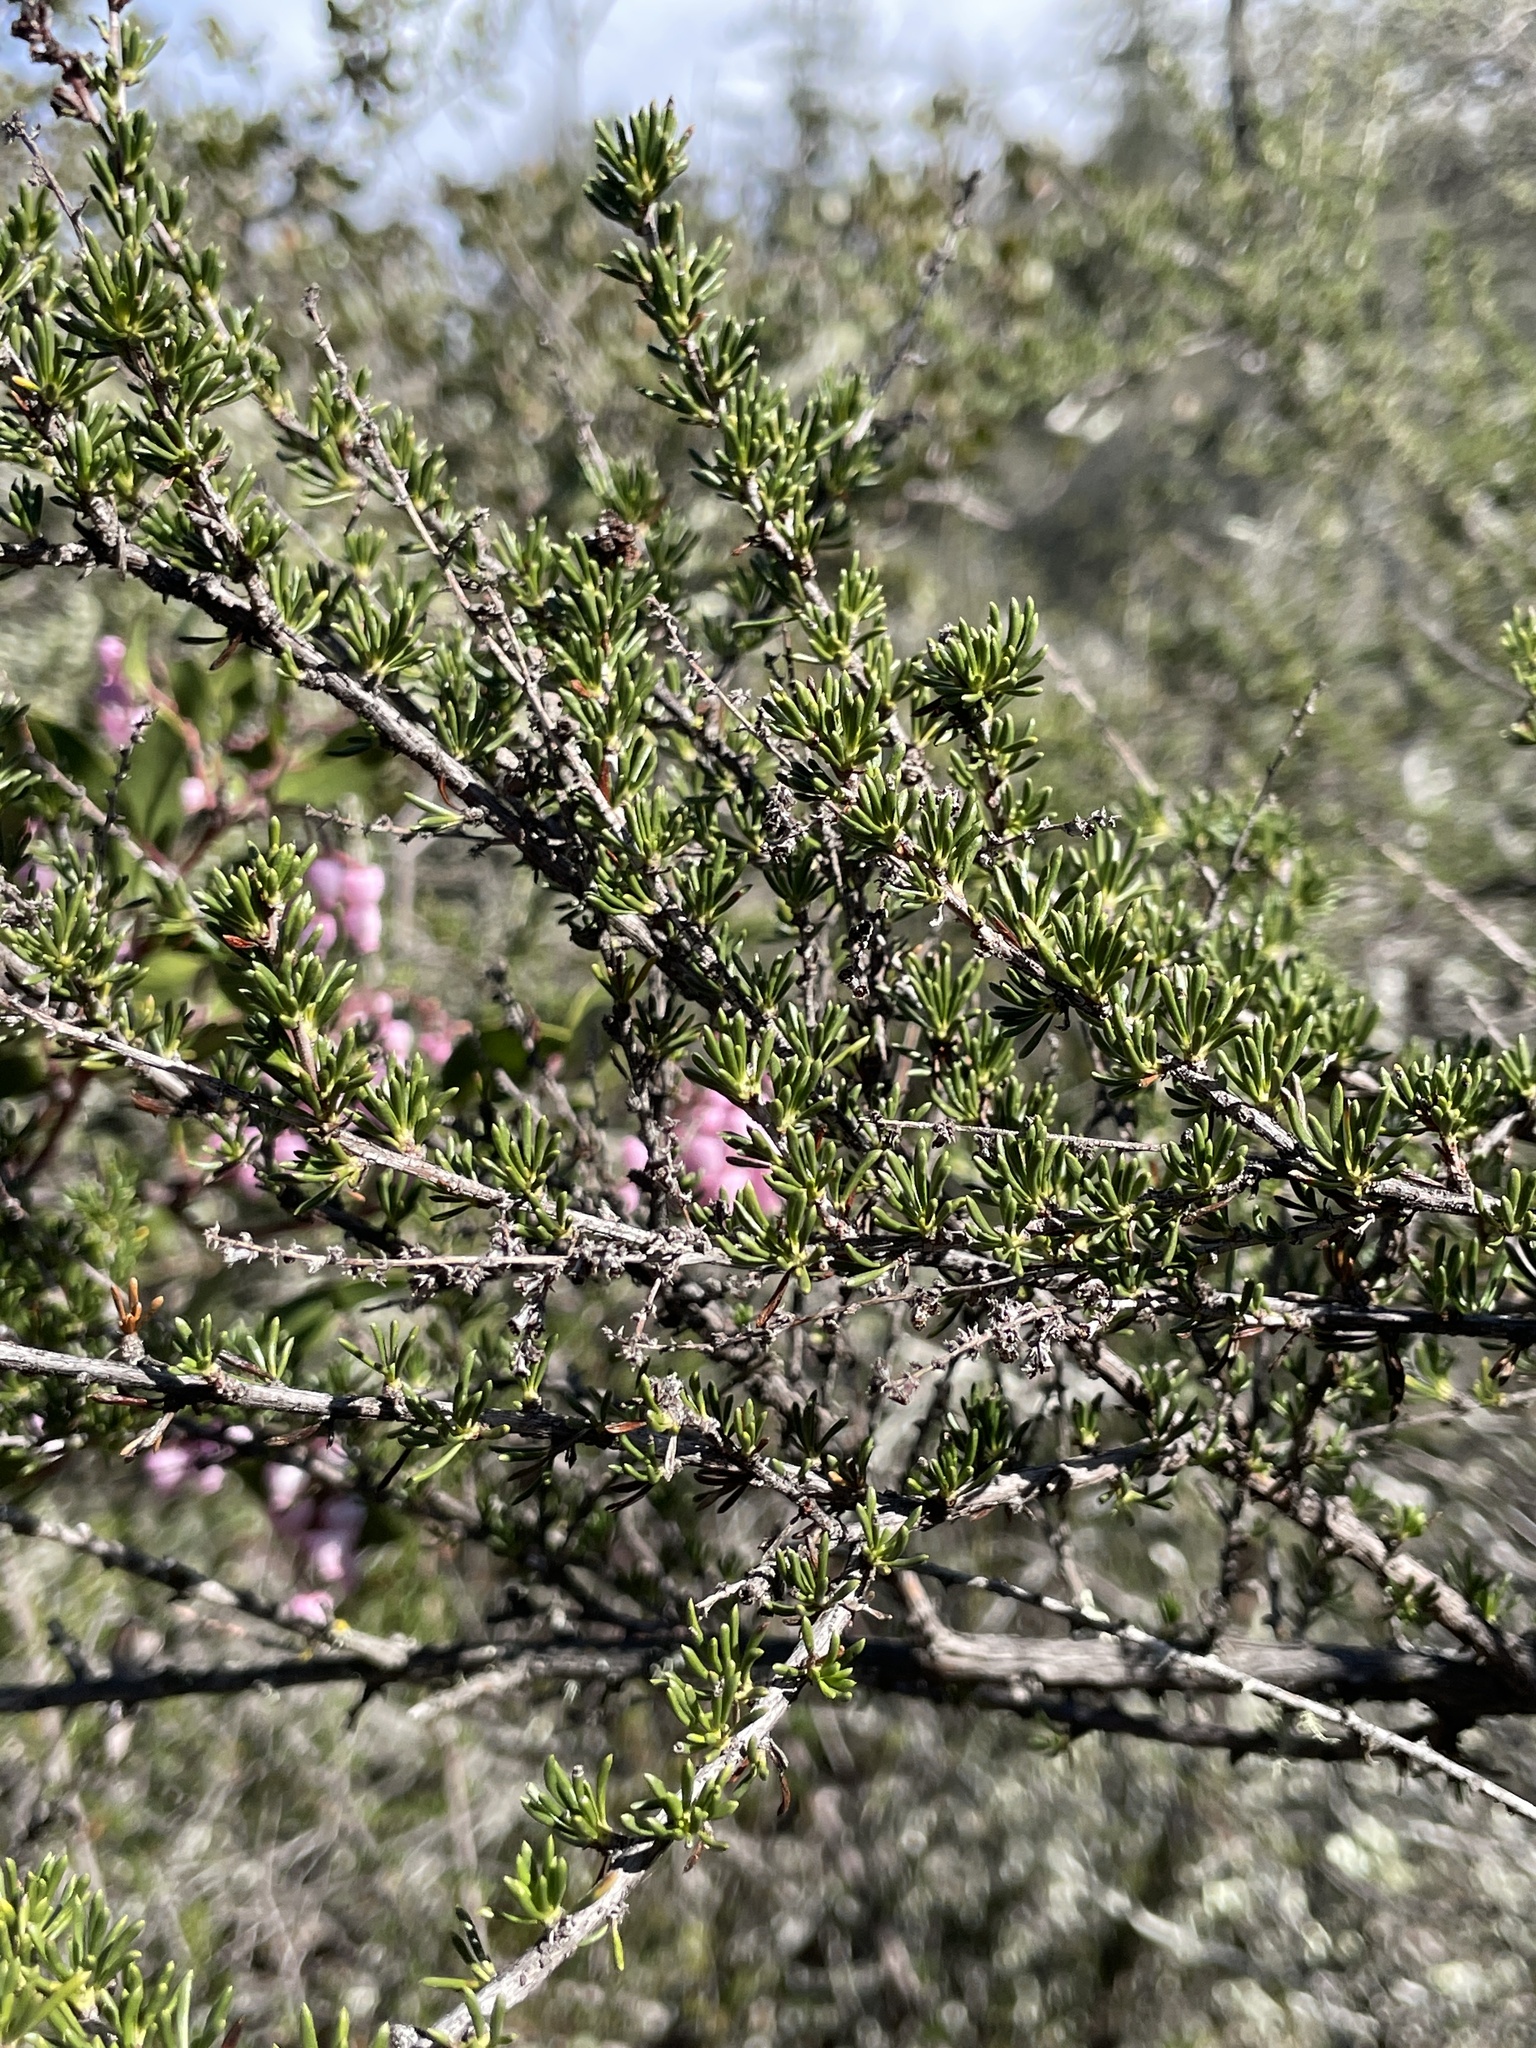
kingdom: Plantae
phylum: Tracheophyta
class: Magnoliopsida
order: Rosales
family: Rosaceae
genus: Adenostoma
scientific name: Adenostoma fasciculatum
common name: Chamise
